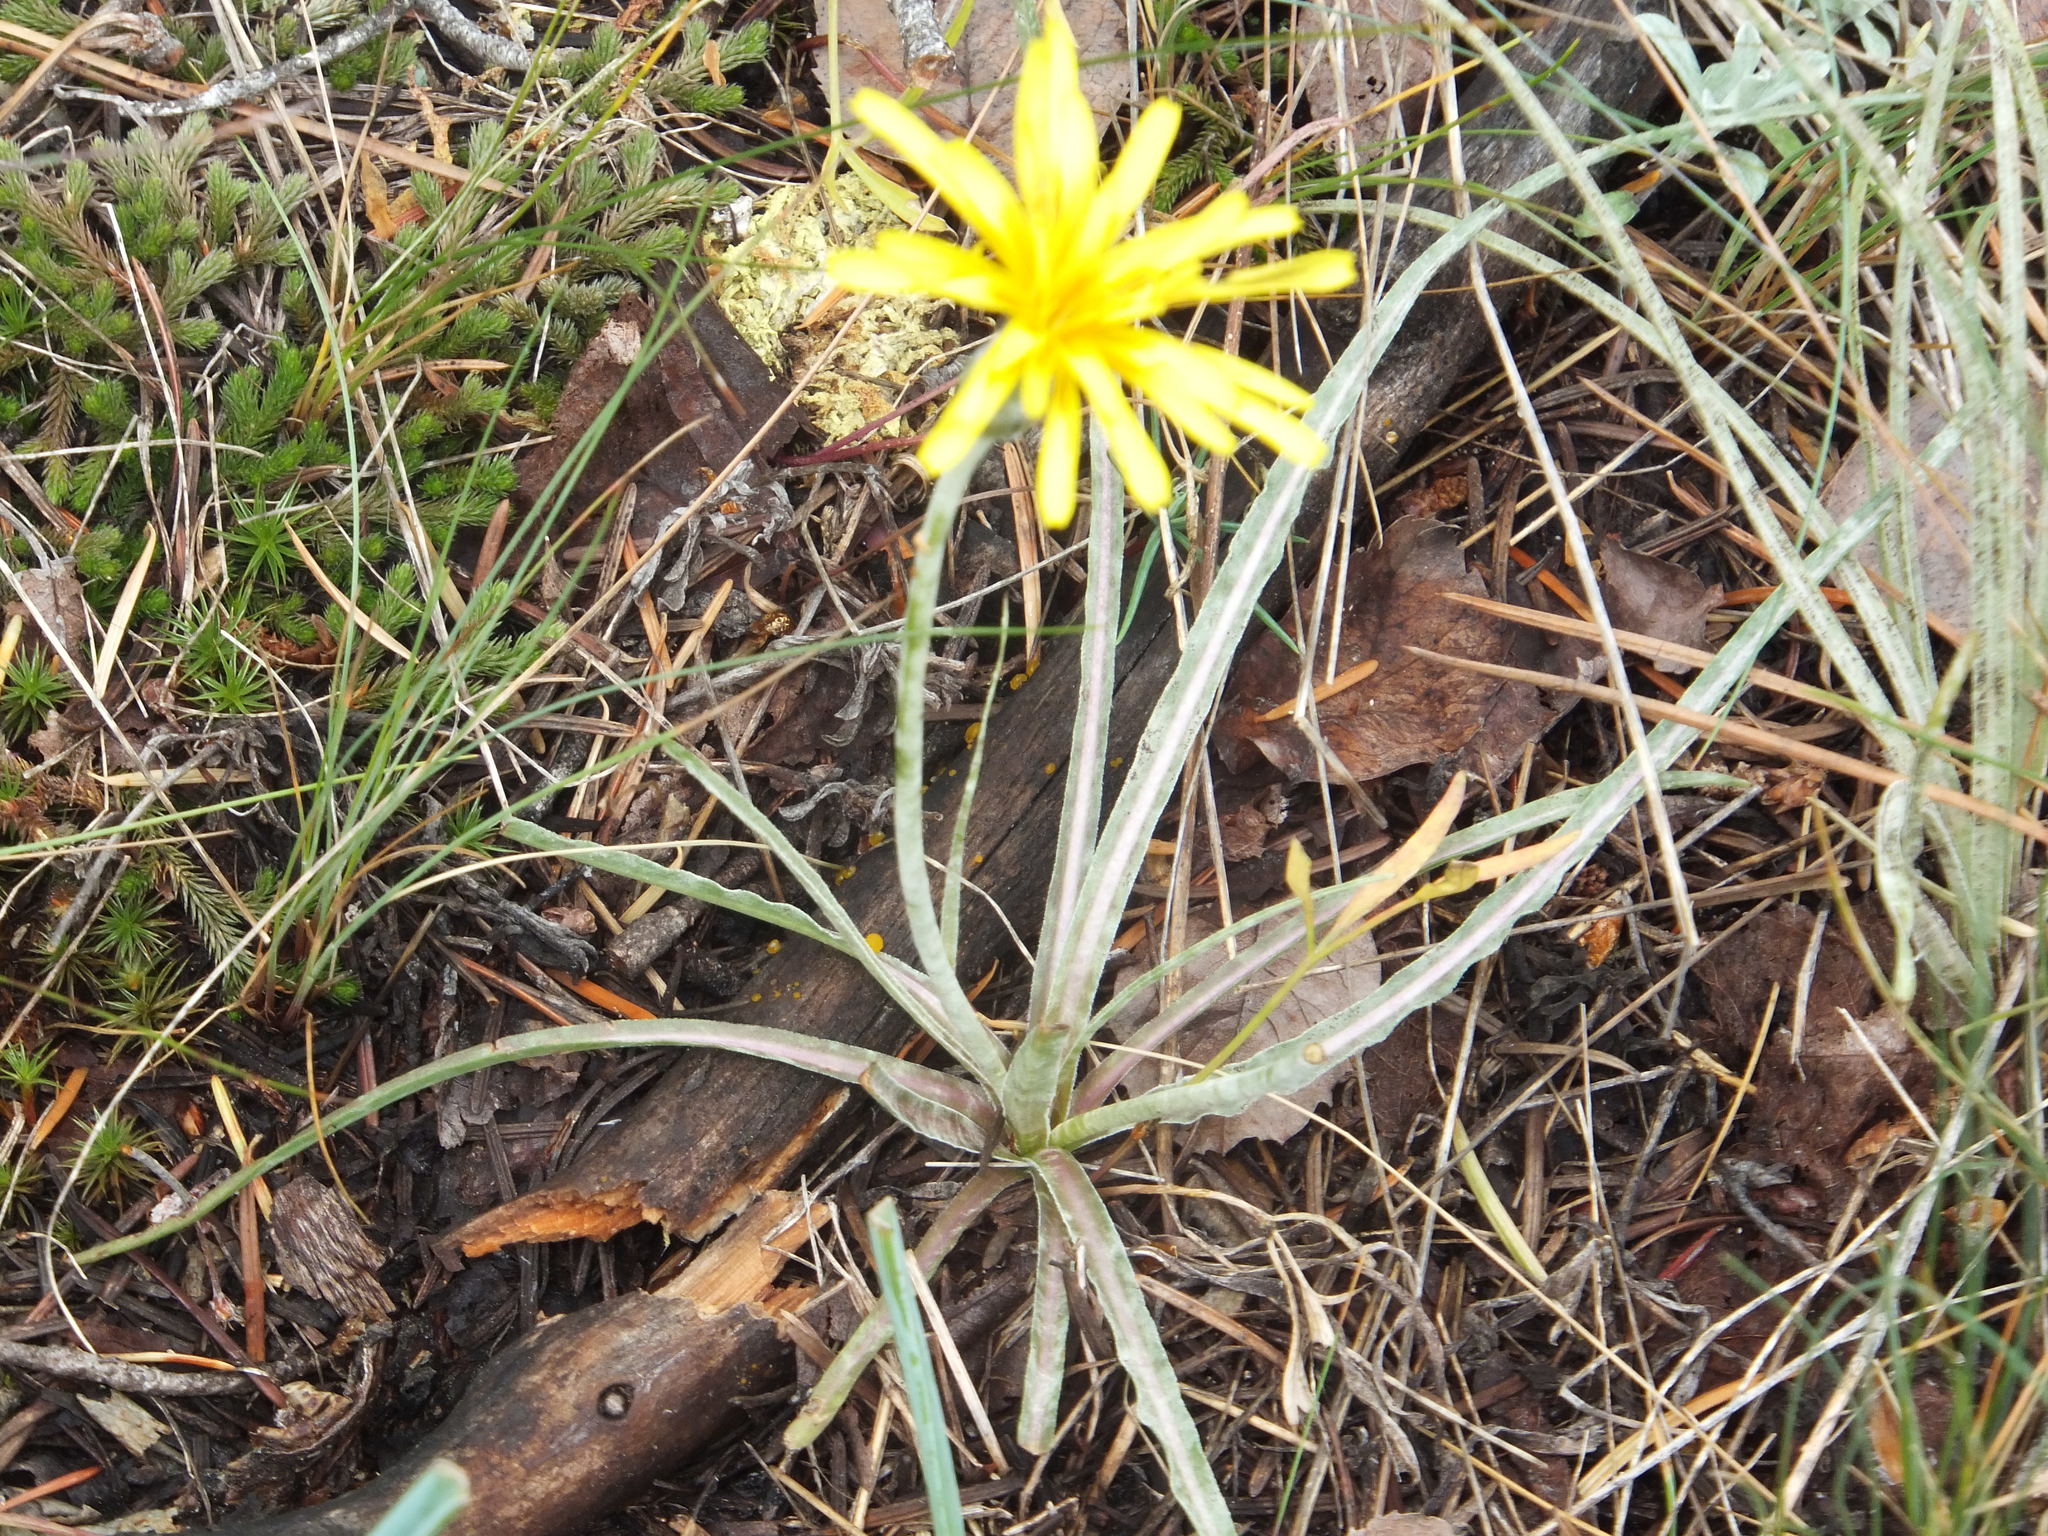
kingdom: Plantae
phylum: Tracheophyta
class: Magnoliopsida
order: Asterales
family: Asteraceae
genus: Microseris
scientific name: Microseris troximoides
